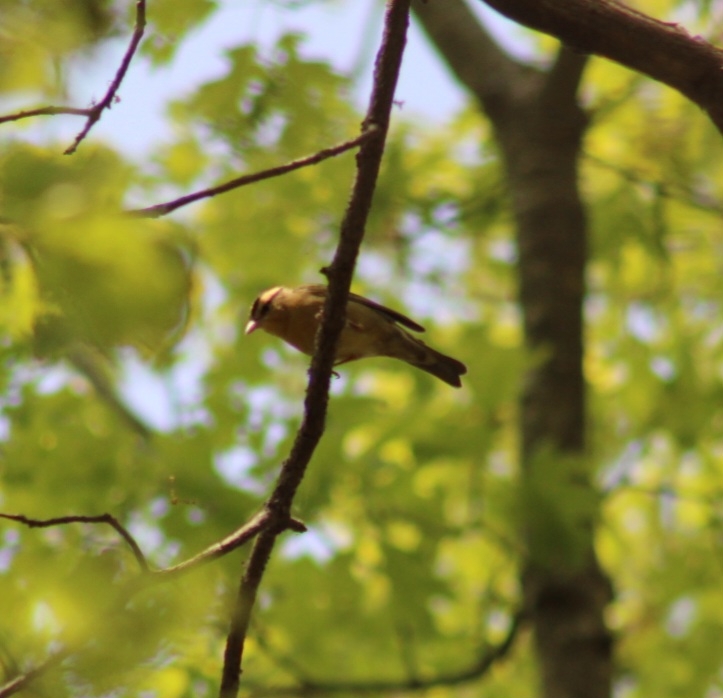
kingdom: Animalia
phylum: Chordata
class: Aves
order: Passeriformes
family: Parulidae
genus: Helmitheros
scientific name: Helmitheros vermivorum
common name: Worm-eating warbler
